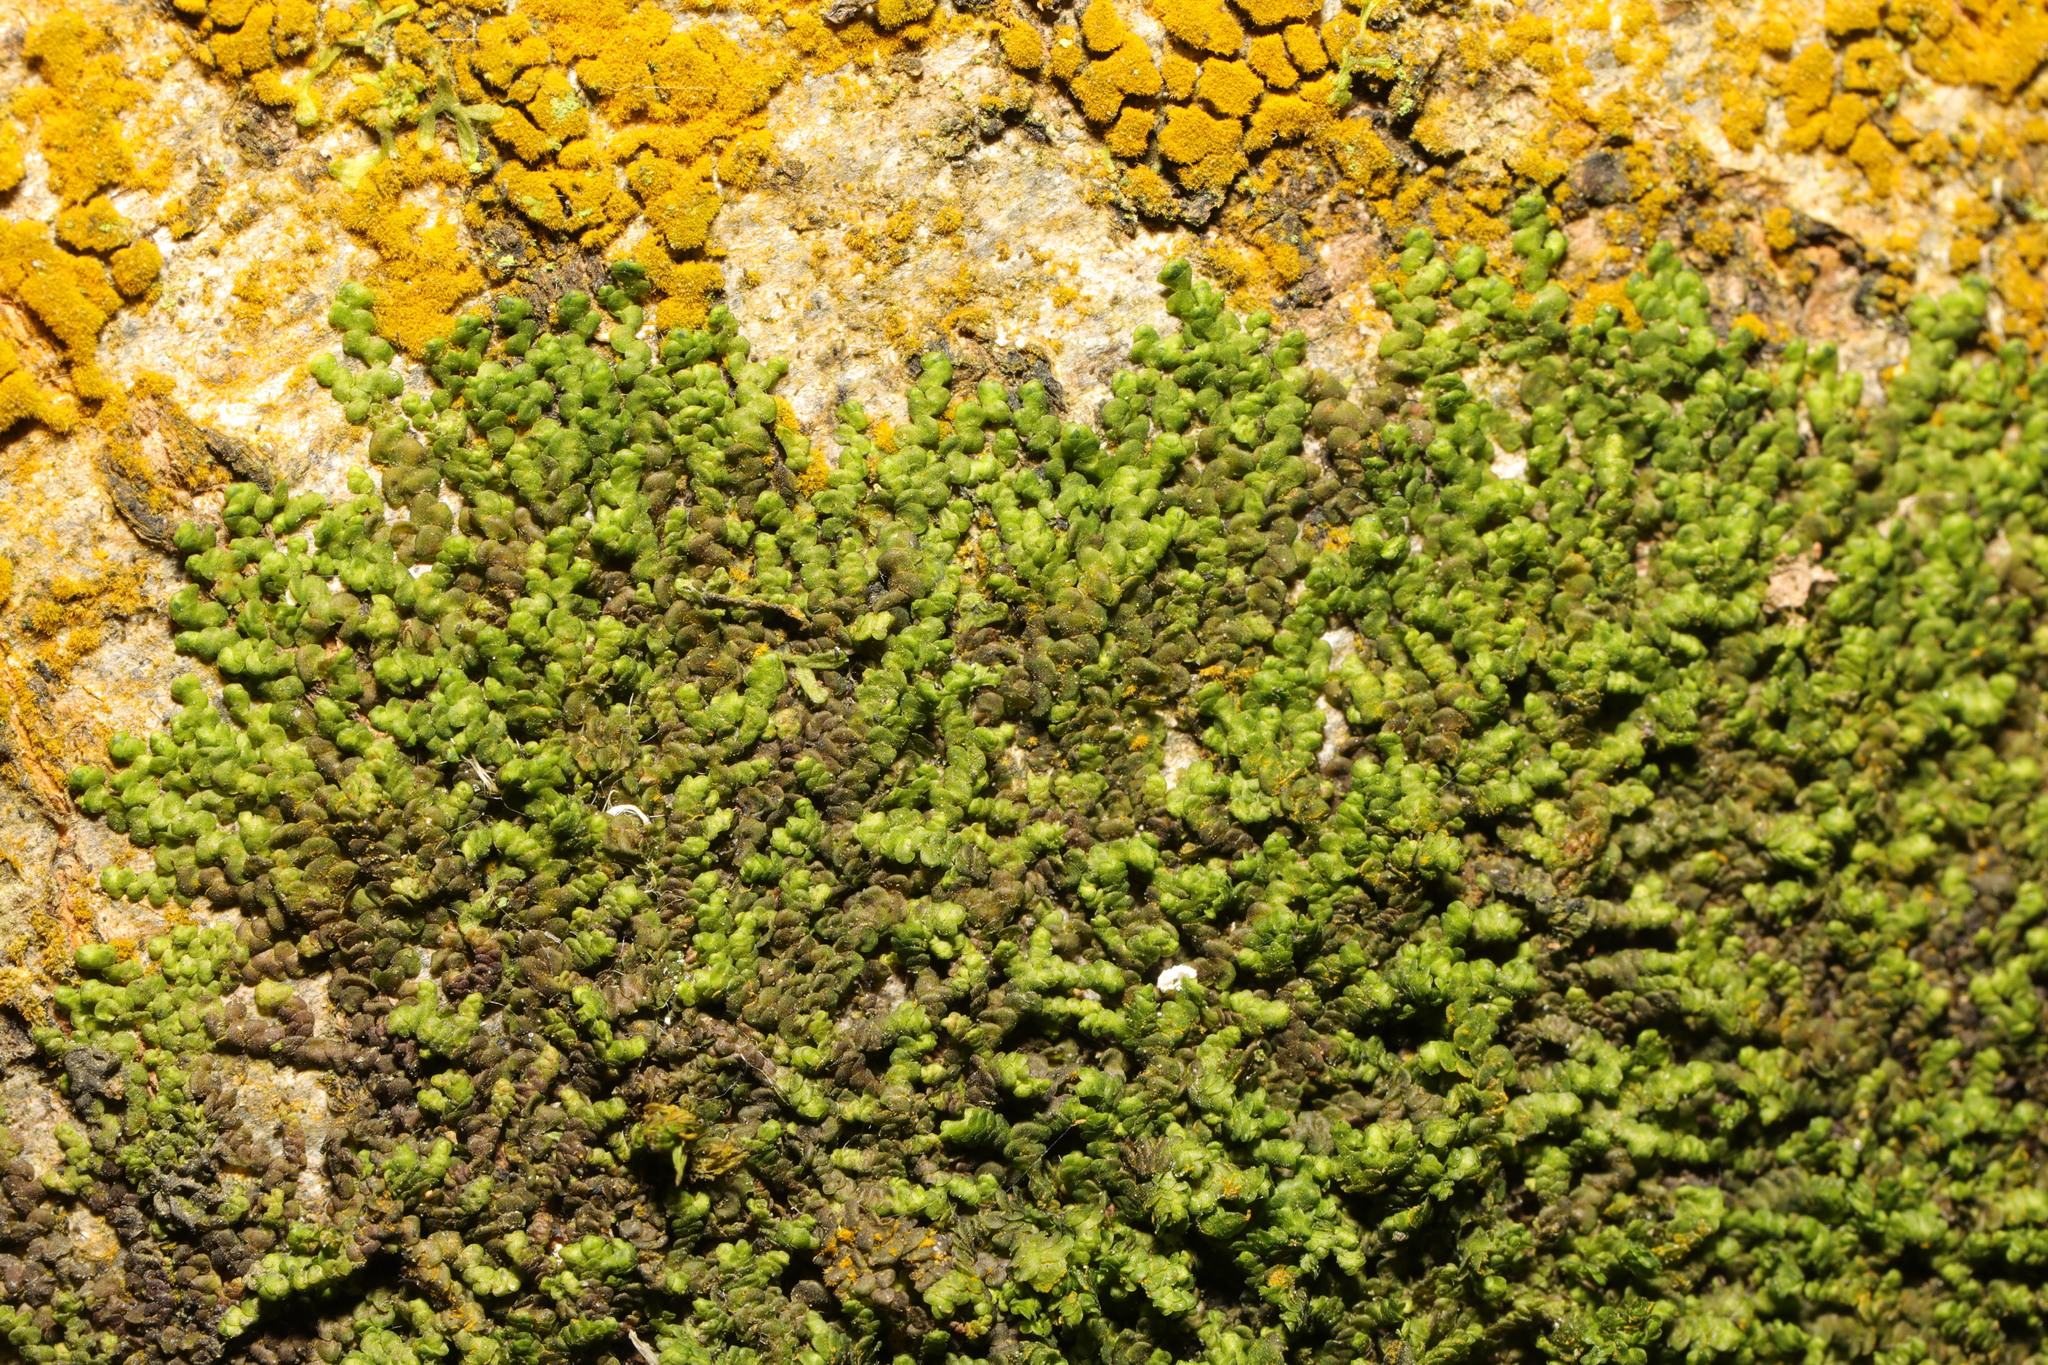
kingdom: Plantae
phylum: Marchantiophyta
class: Jungermanniopsida
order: Porellales
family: Frullaniaceae
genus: Frullania
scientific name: Frullania dilatata
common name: Dilated scalewort
